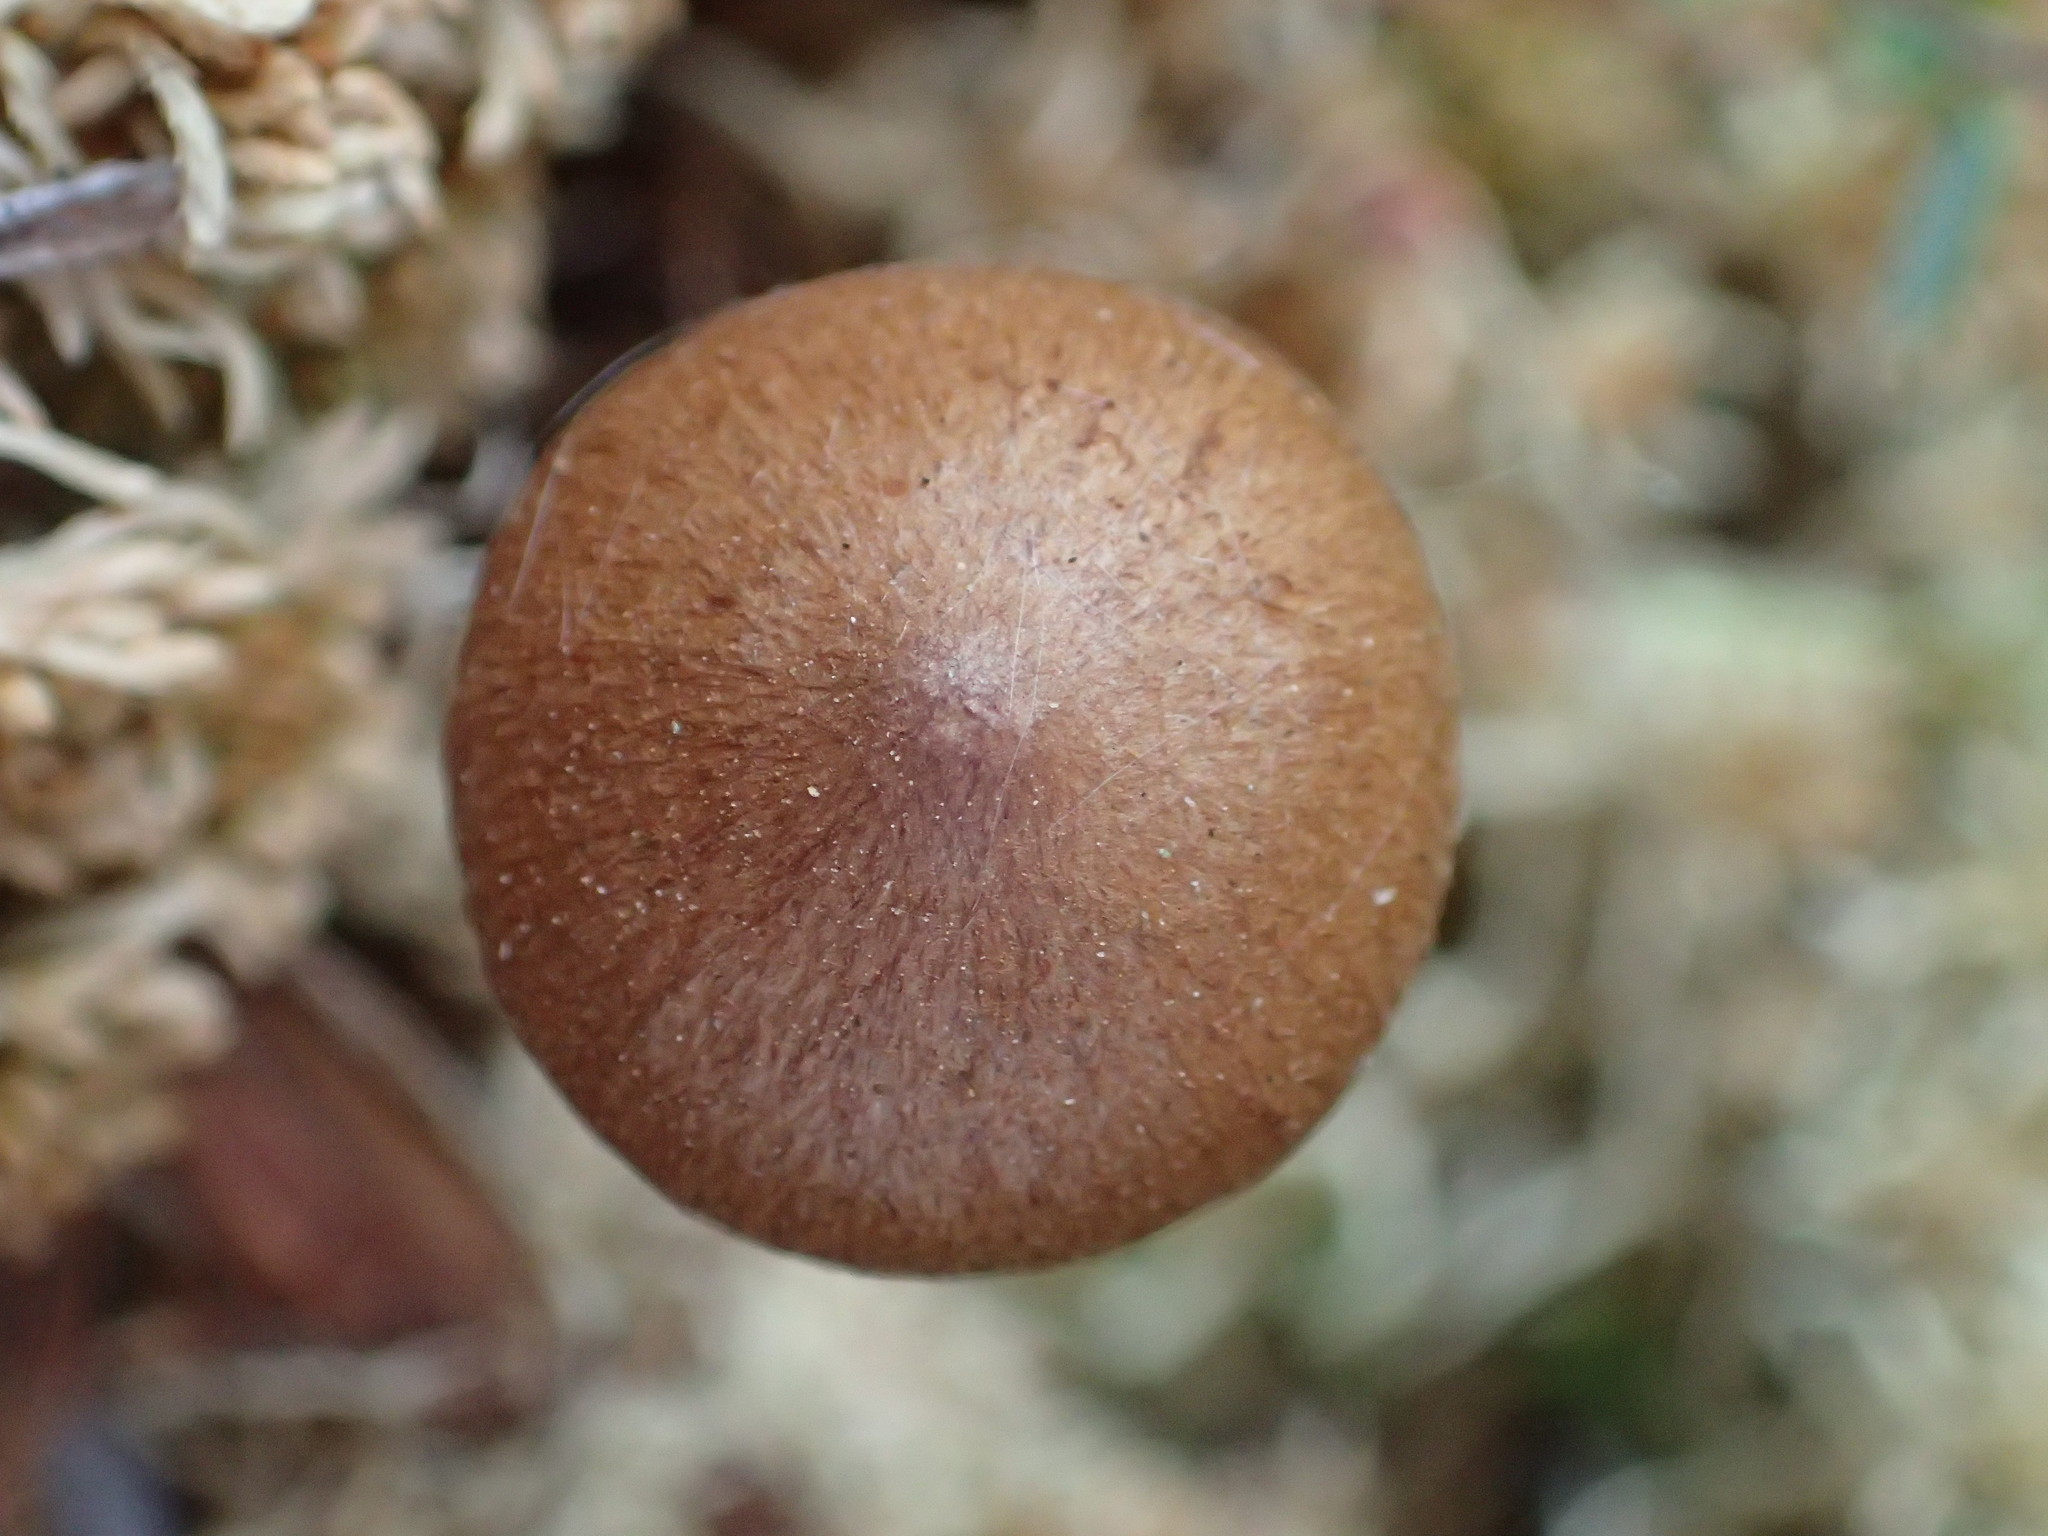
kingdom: Fungi
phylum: Basidiomycota
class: Agaricomycetes
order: Agaricales
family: Cortinariaceae
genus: Cortinarius
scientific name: Cortinarius chrysolitus
